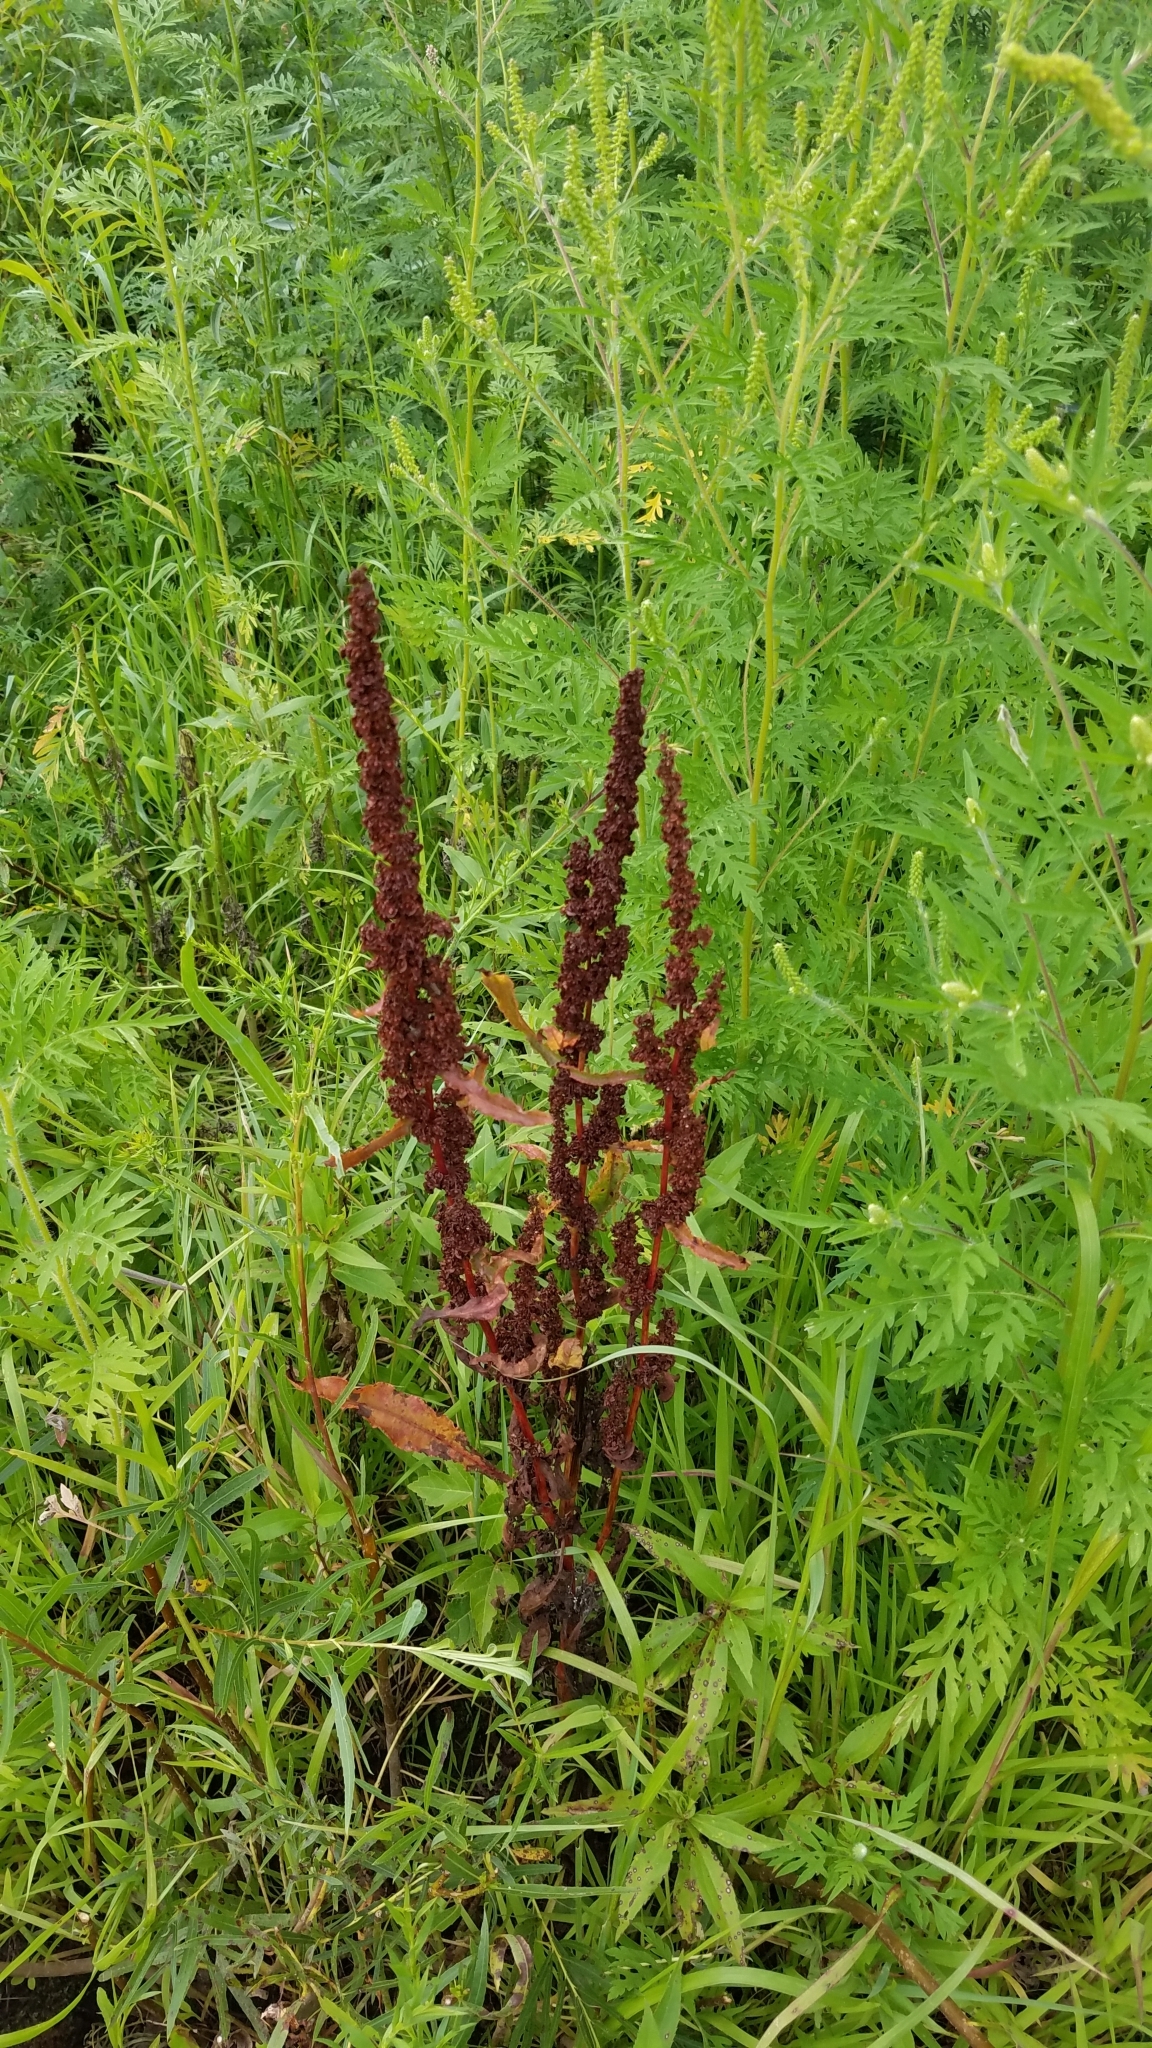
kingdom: Plantae
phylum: Tracheophyta
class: Magnoliopsida
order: Caryophyllales
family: Polygonaceae
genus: Rumex
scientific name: Rumex crispus
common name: Curled dock
